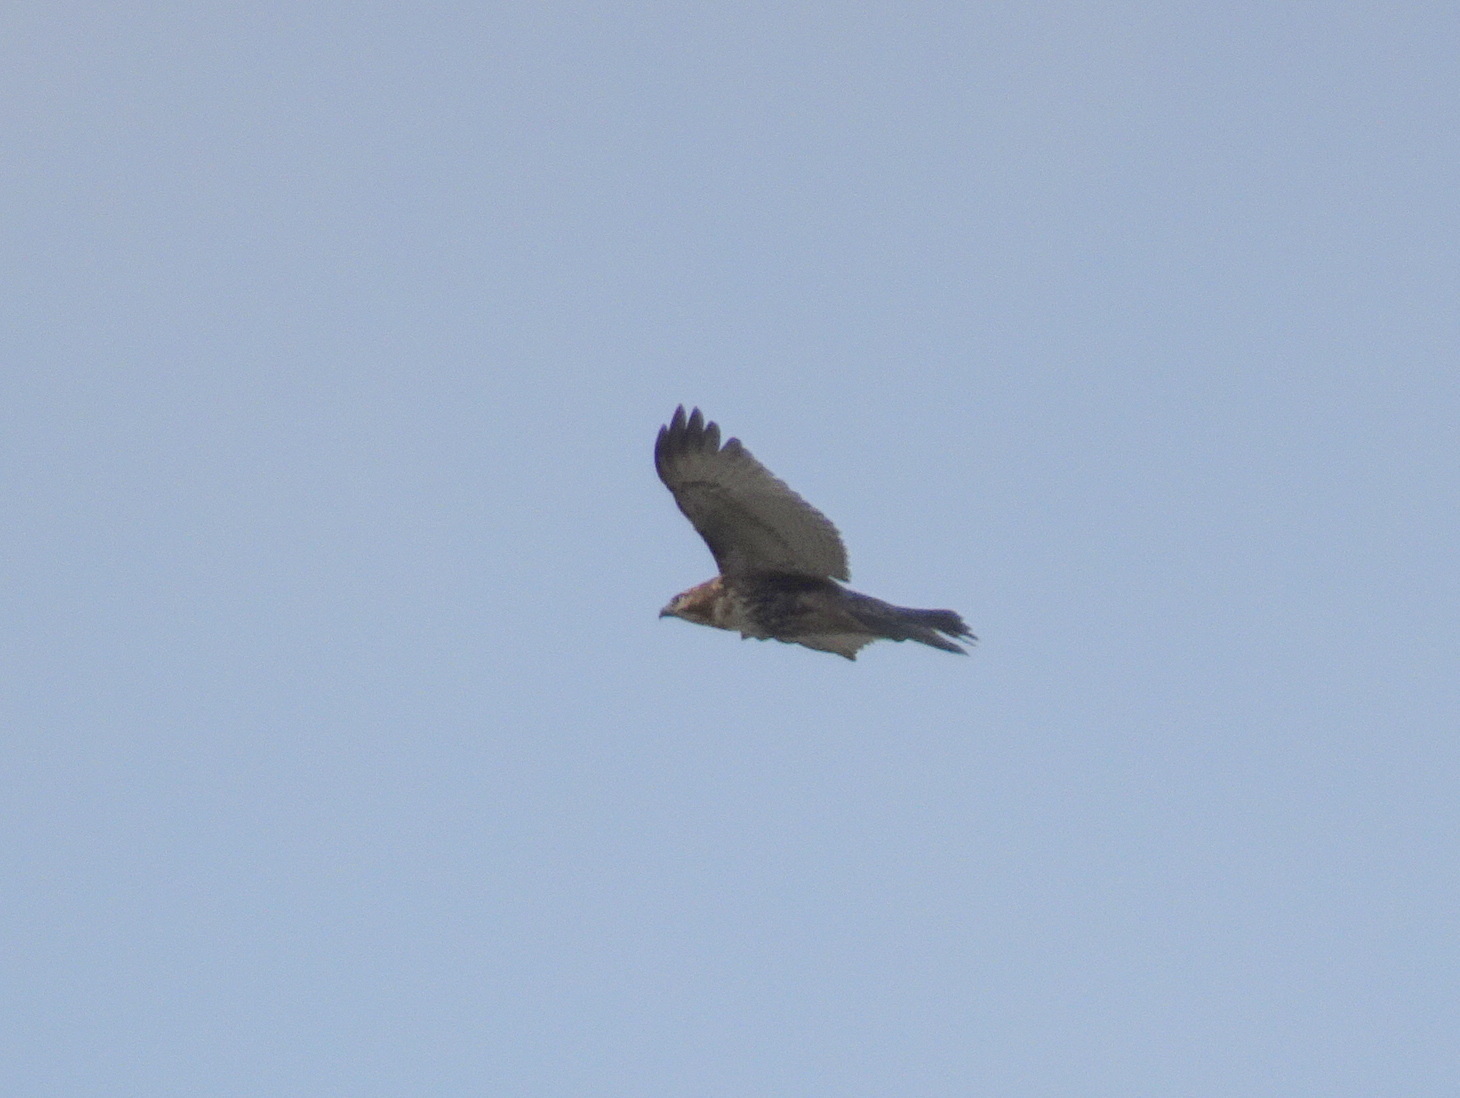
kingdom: Animalia
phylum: Chordata
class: Aves
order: Accipitriformes
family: Accipitridae
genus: Buteo
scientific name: Buteo jamaicensis
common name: Red-tailed hawk
